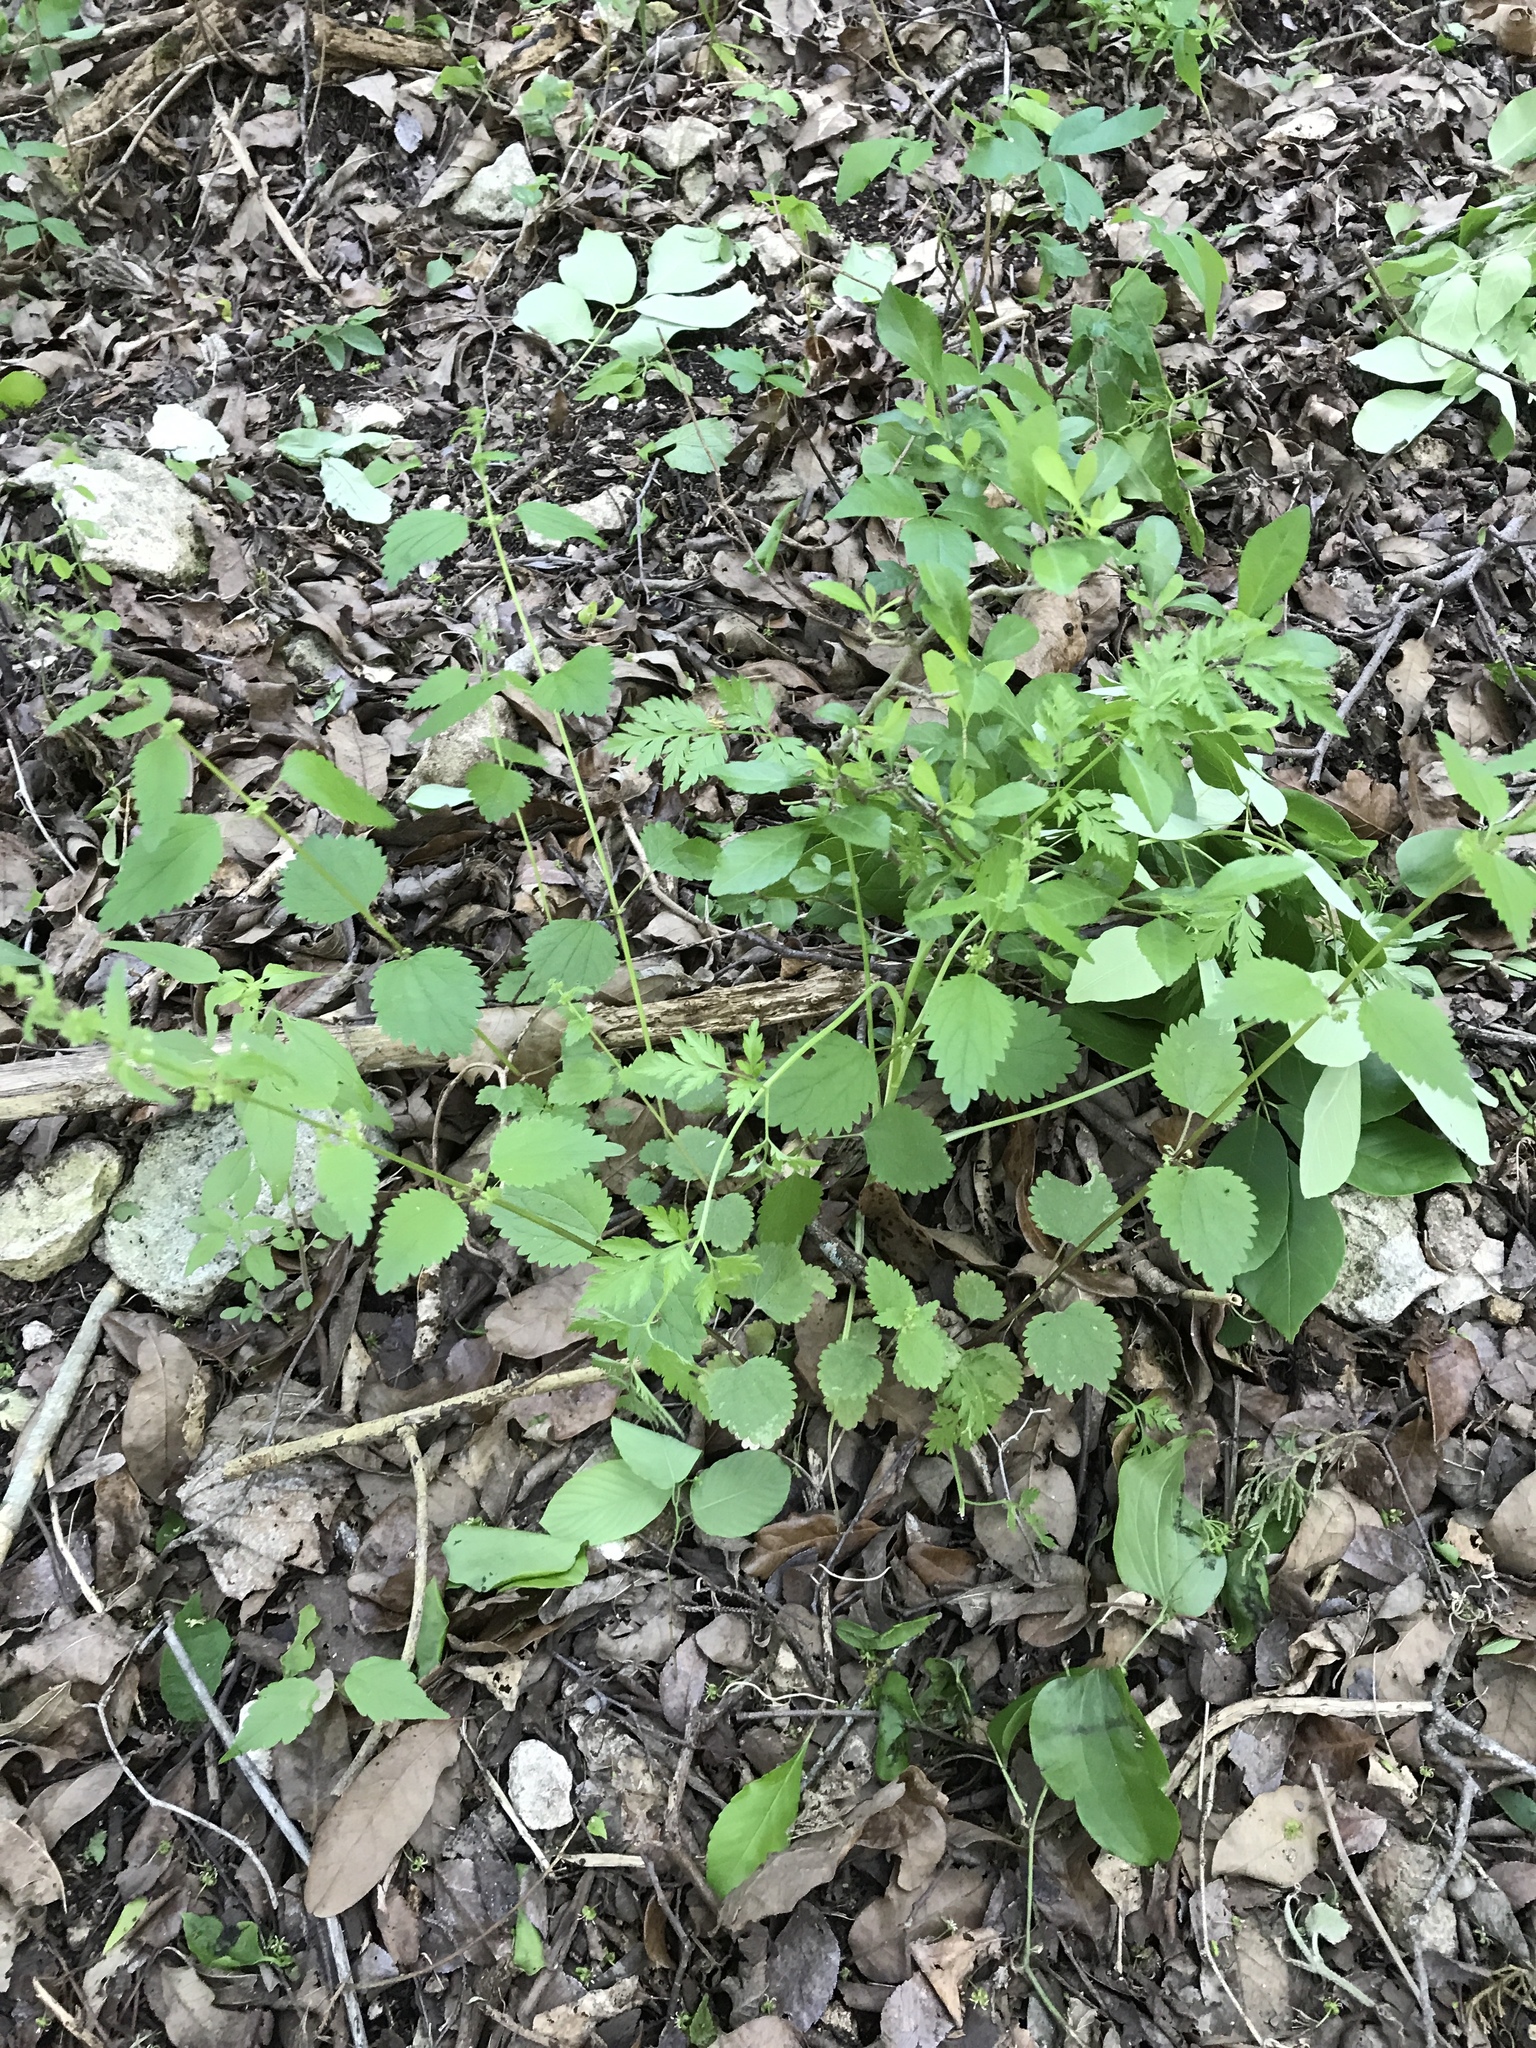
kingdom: Plantae
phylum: Tracheophyta
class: Magnoliopsida
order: Rosales
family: Urticaceae
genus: Urtica
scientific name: Urtica chamaedryoides
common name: Heart-leaf nettle
